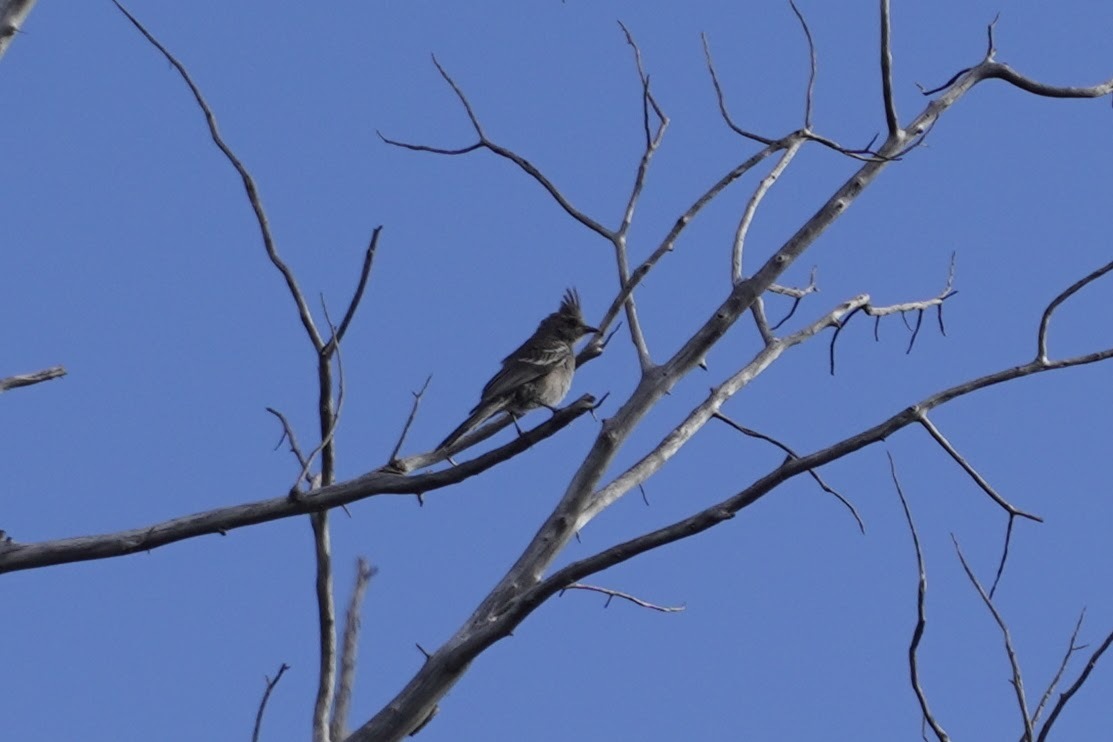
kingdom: Animalia
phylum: Chordata
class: Aves
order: Passeriformes
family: Ptilogonatidae
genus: Phainopepla
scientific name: Phainopepla nitens
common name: Phainopepla
